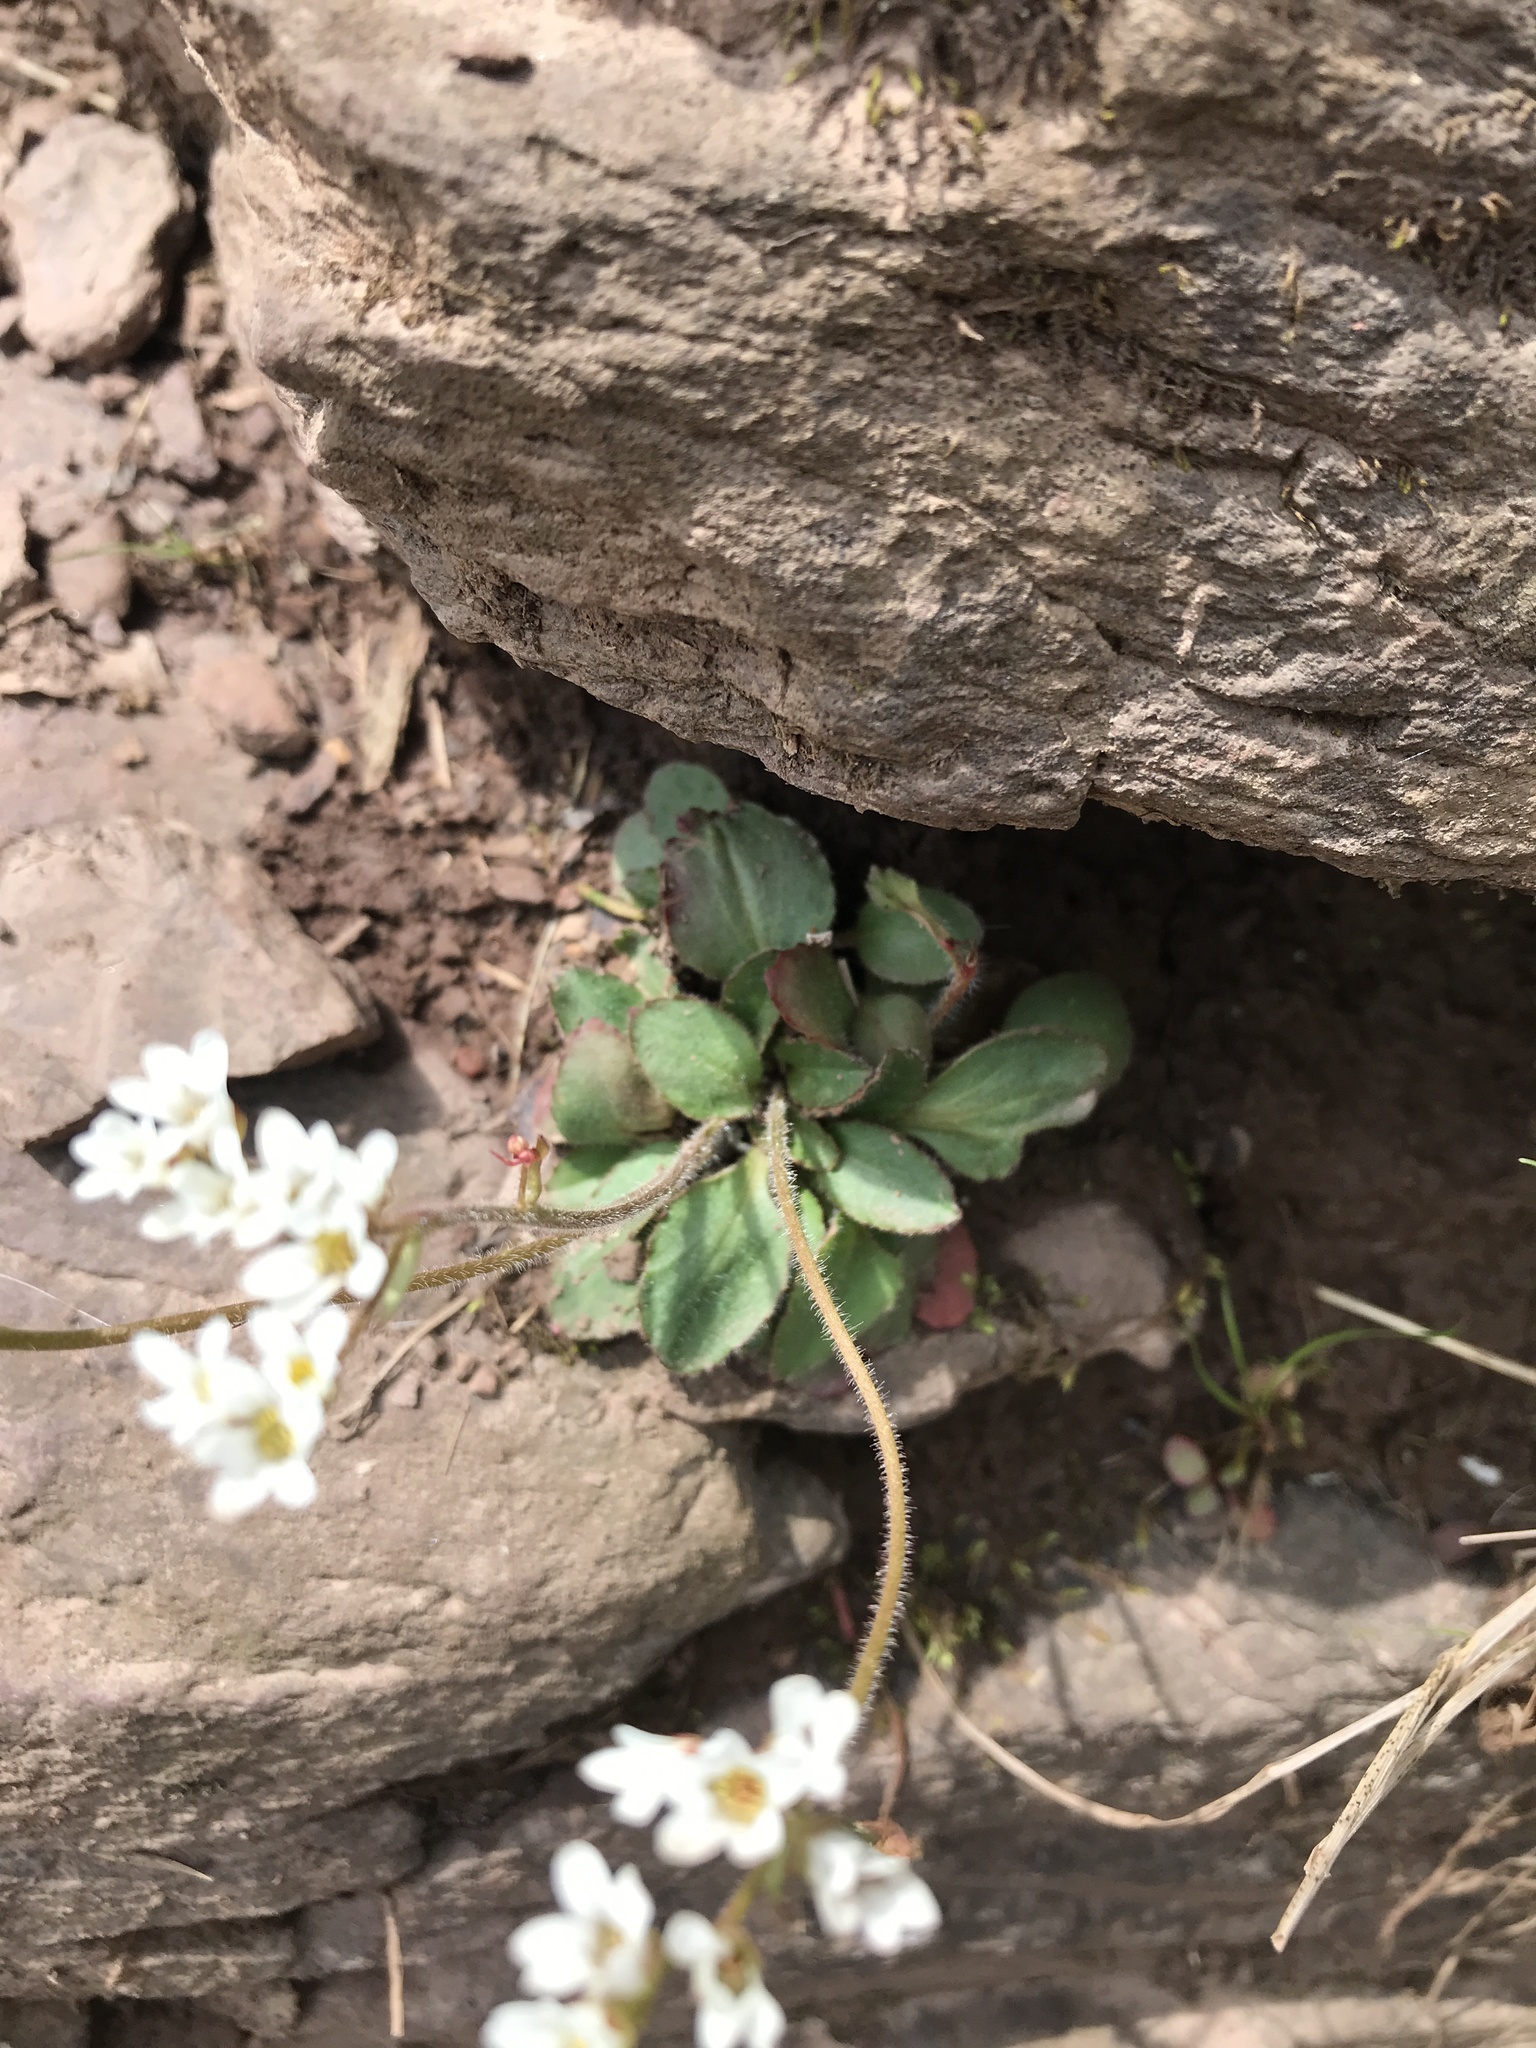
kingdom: Plantae
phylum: Tracheophyta
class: Magnoliopsida
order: Saxifragales
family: Saxifragaceae
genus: Micranthes
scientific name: Micranthes virginiensis
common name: Early saxifrage
